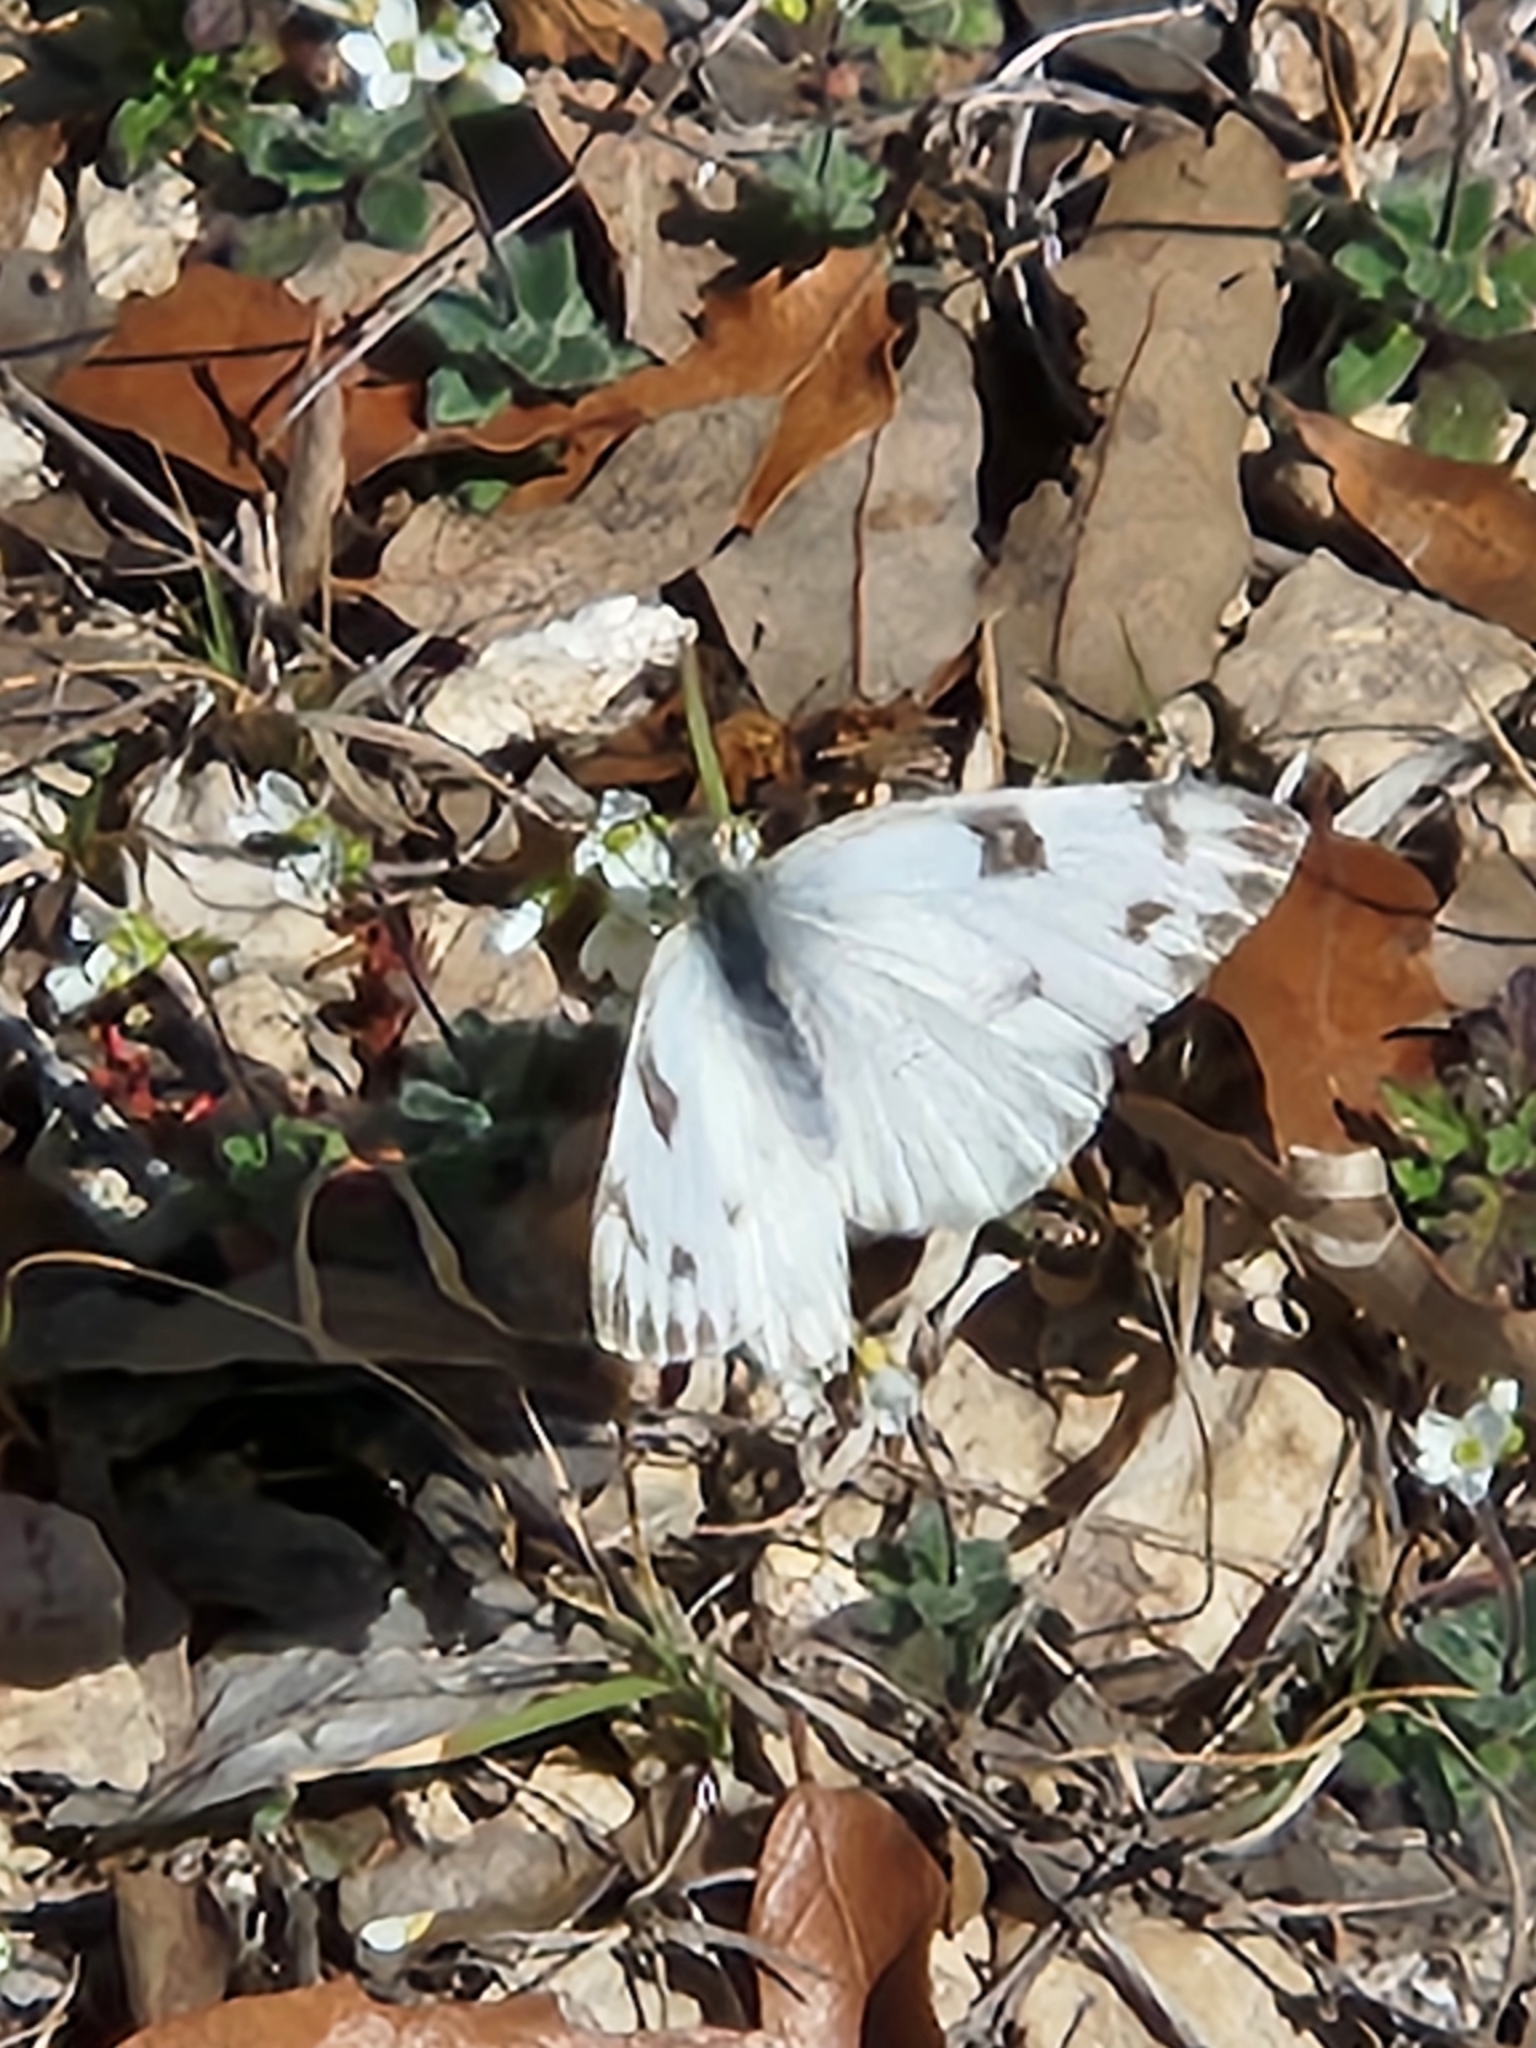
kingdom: Animalia
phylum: Arthropoda
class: Insecta
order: Lepidoptera
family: Pieridae
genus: Pontia
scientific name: Pontia protodice
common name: Checkered white
